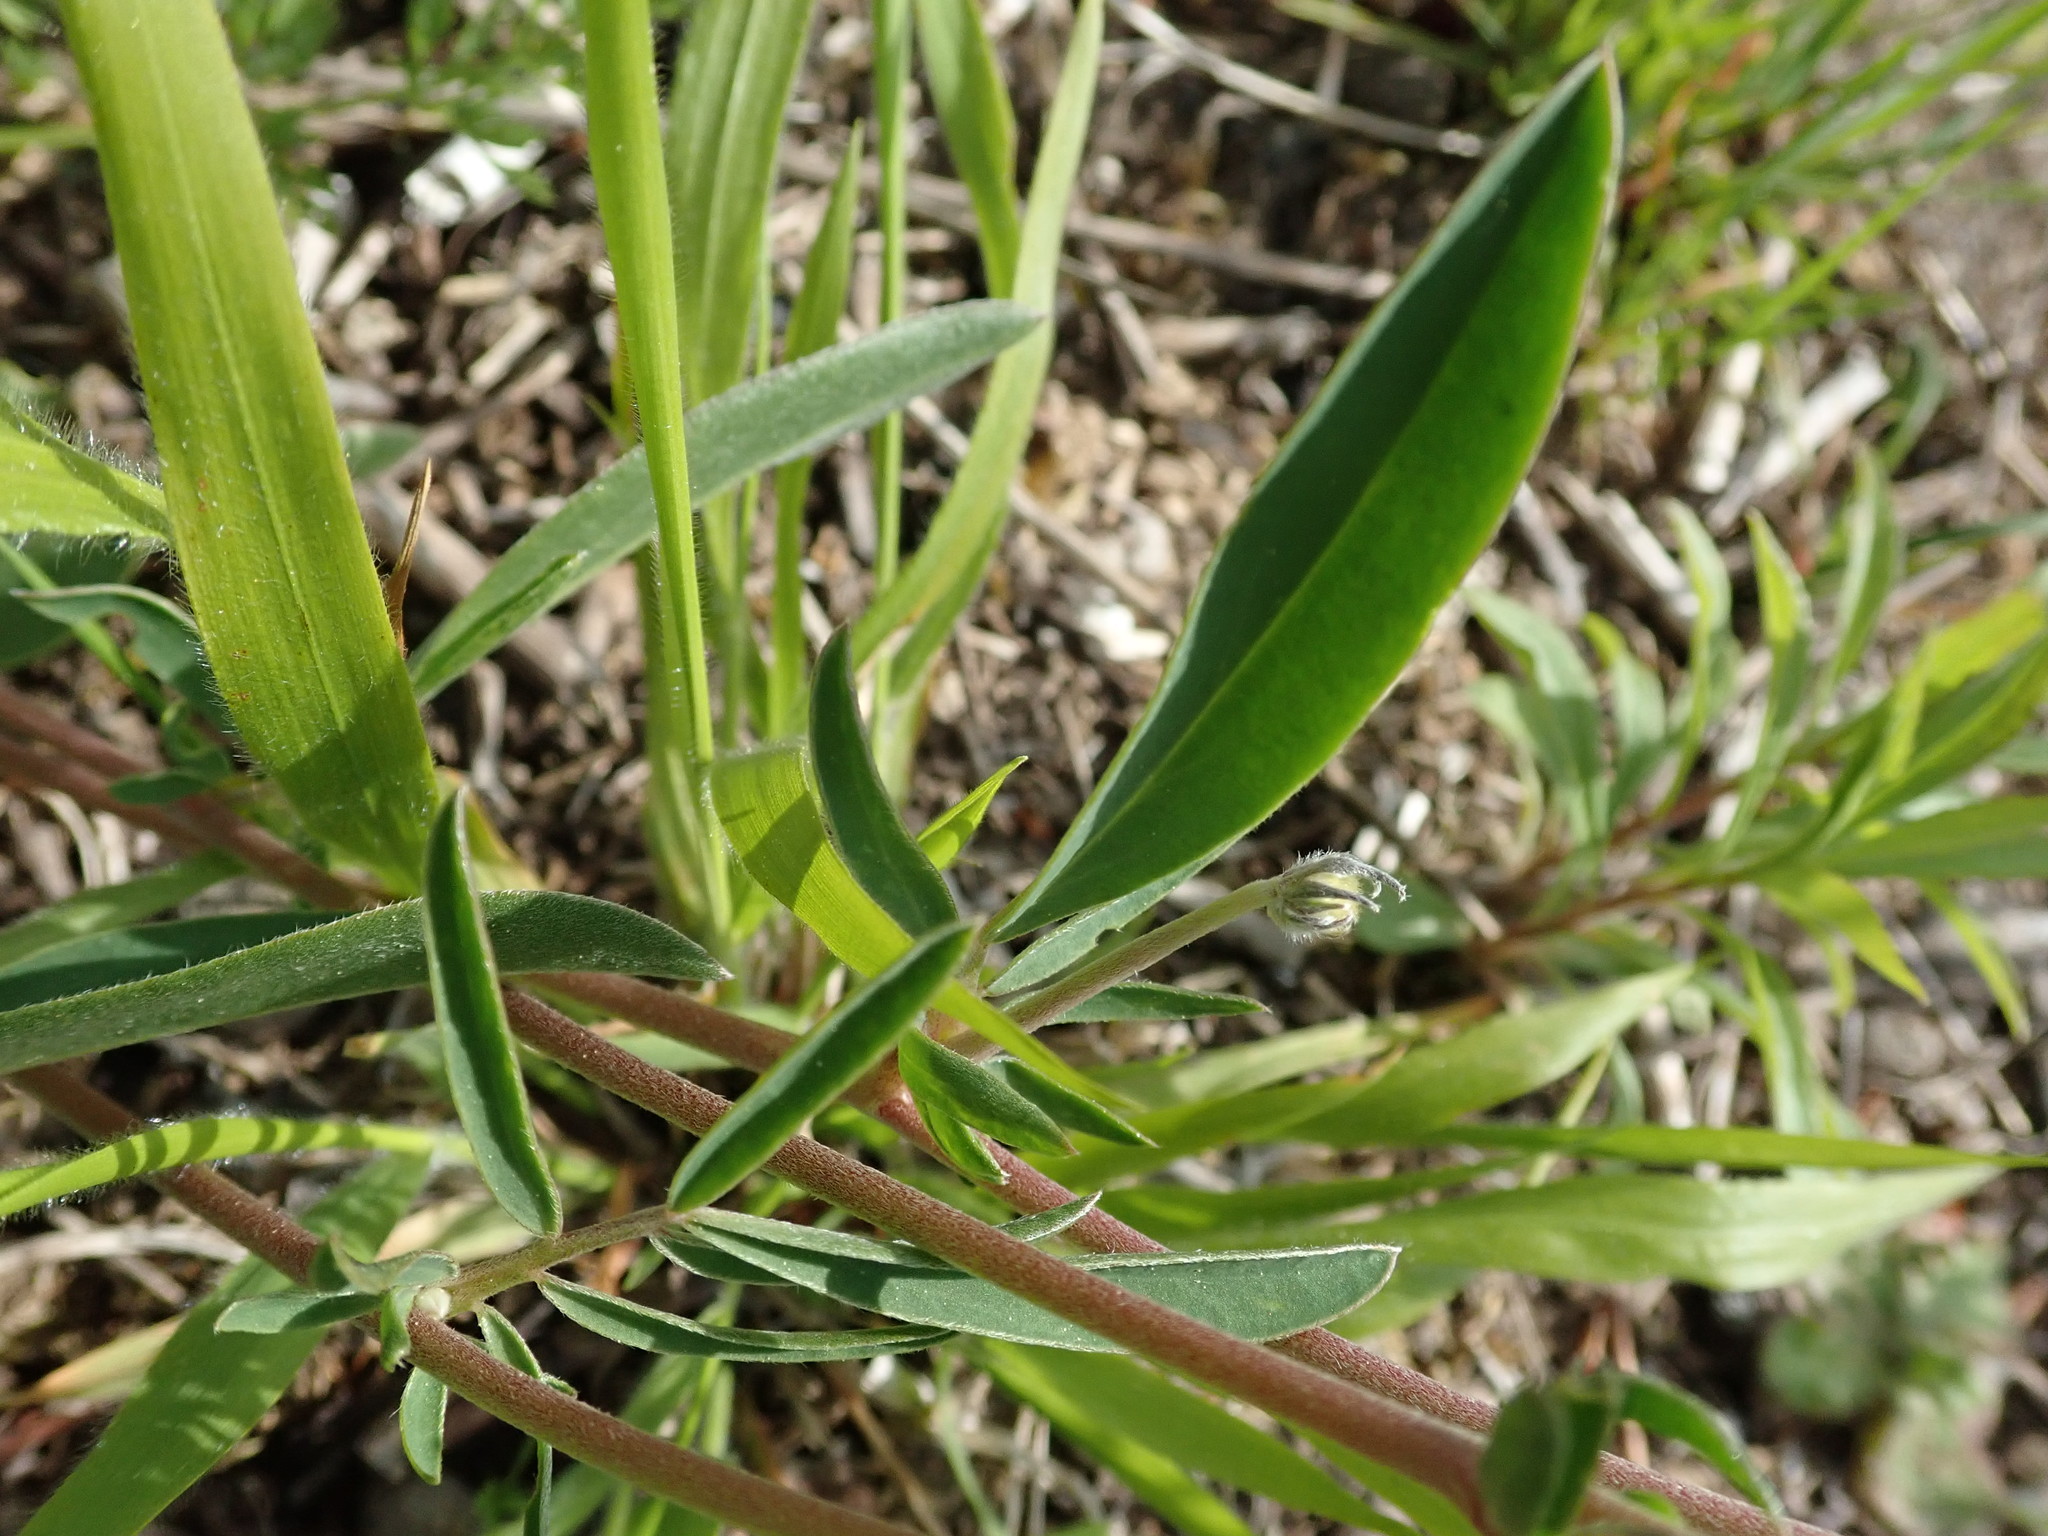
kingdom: Plantae
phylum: Tracheophyta
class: Magnoliopsida
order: Fabales
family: Fabaceae
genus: Anthyllis
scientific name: Anthyllis vulneraria
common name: Kidney vetch
